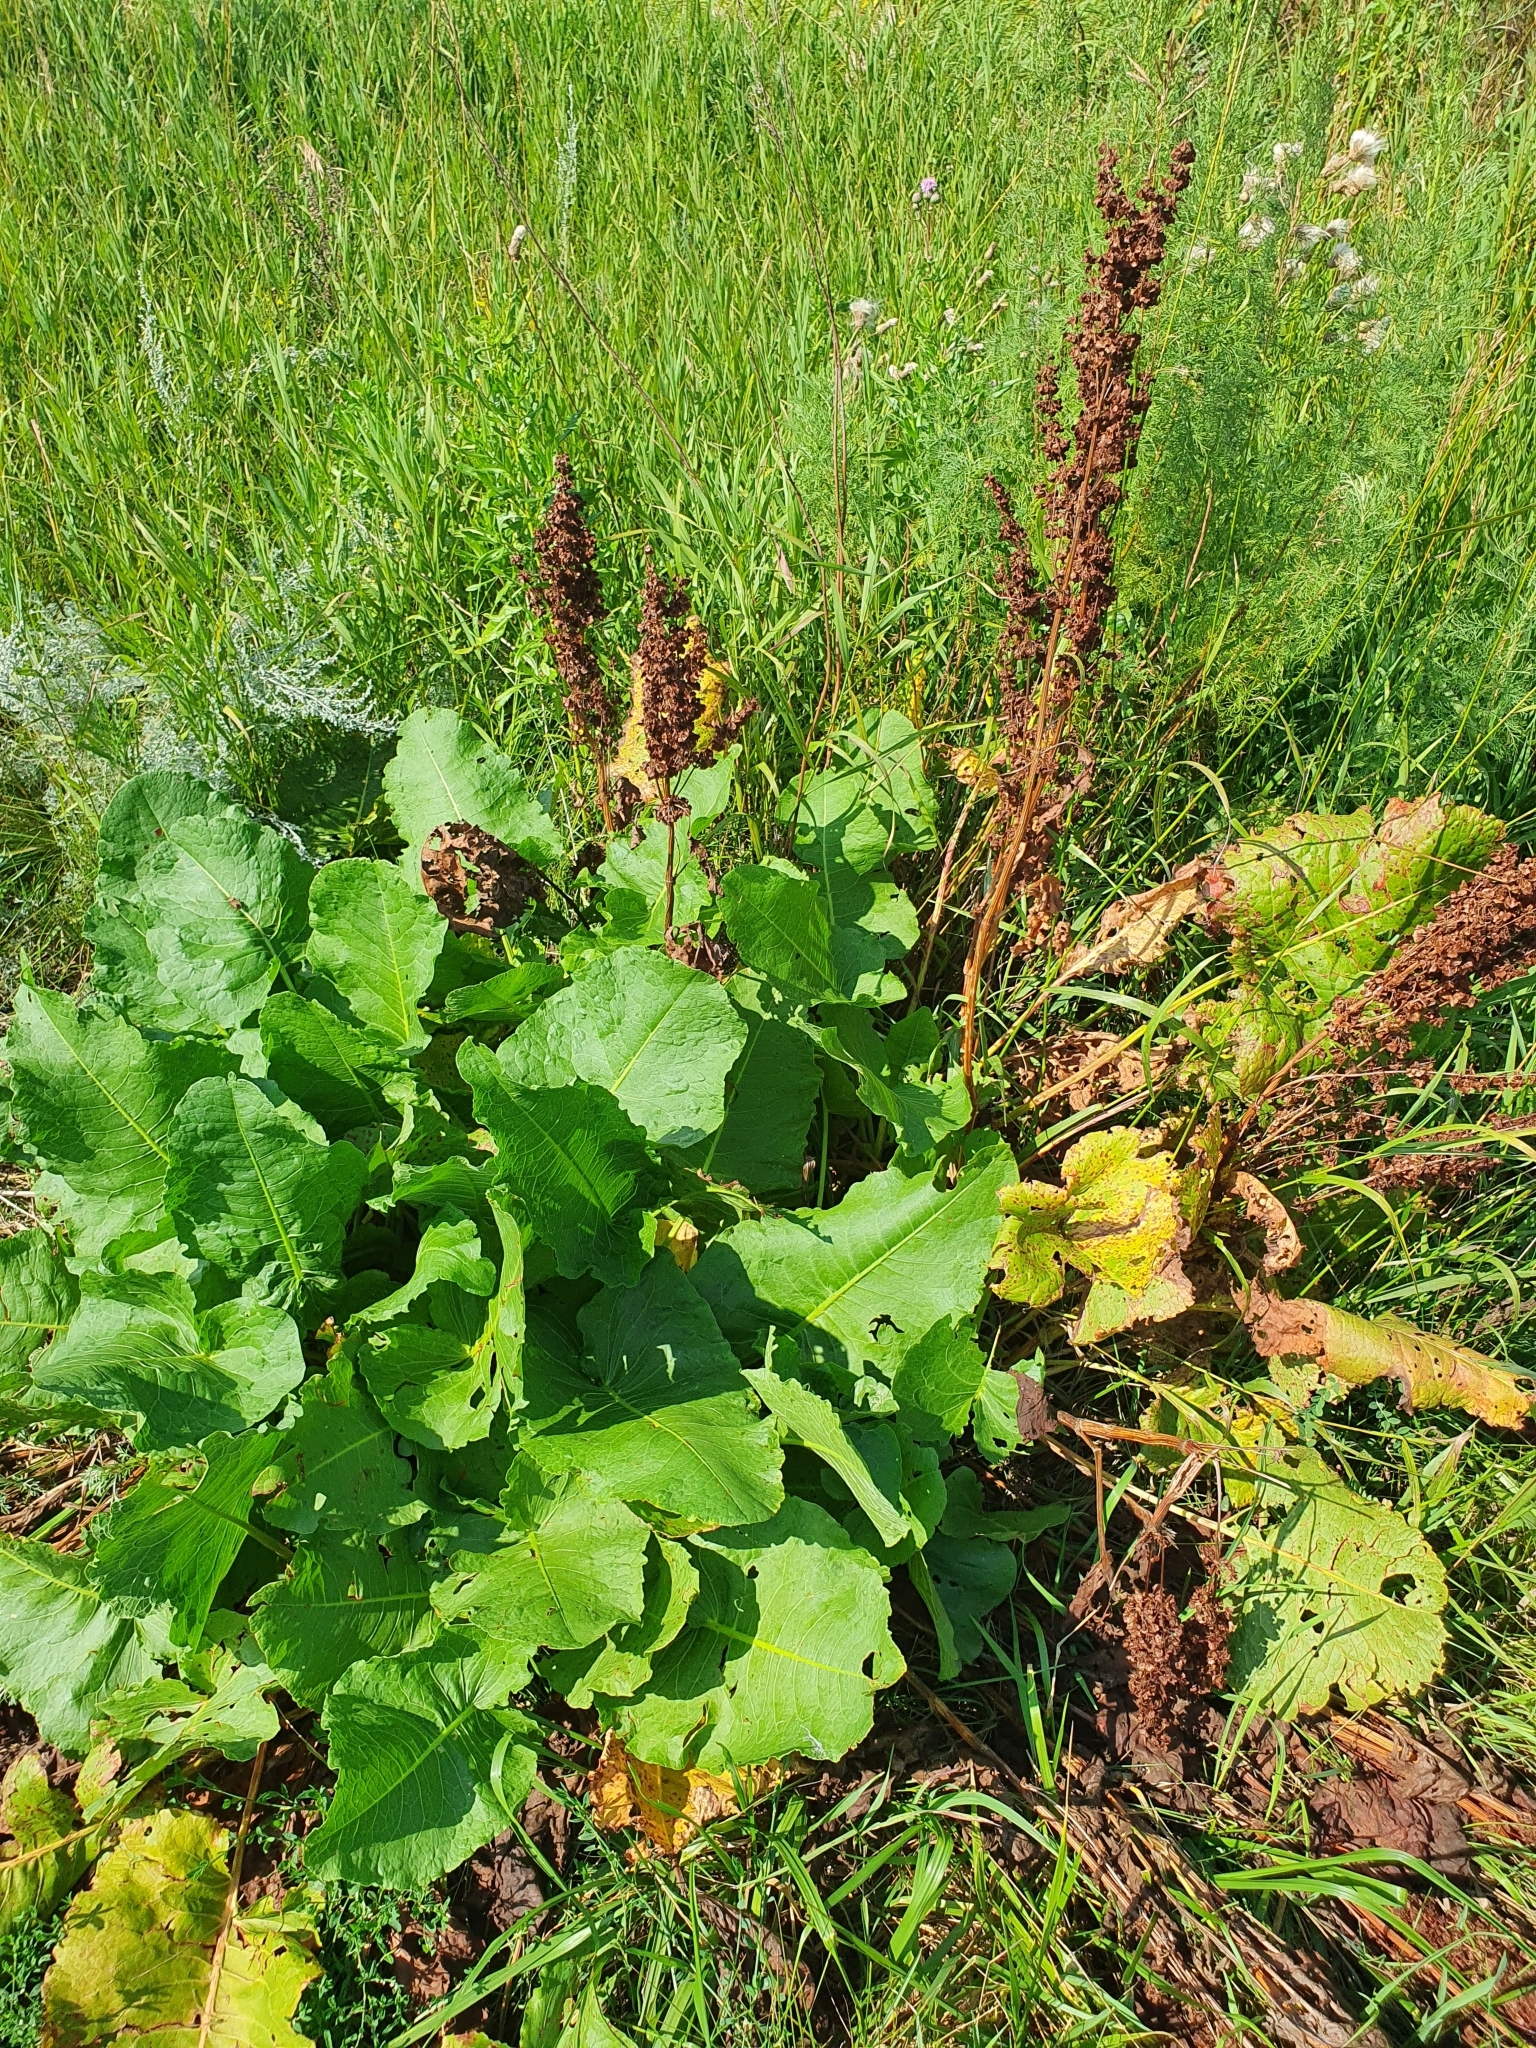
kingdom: Plantae
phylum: Tracheophyta
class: Magnoliopsida
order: Caryophyllales
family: Polygonaceae
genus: Rumex
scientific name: Rumex confertus
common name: Russian dock
